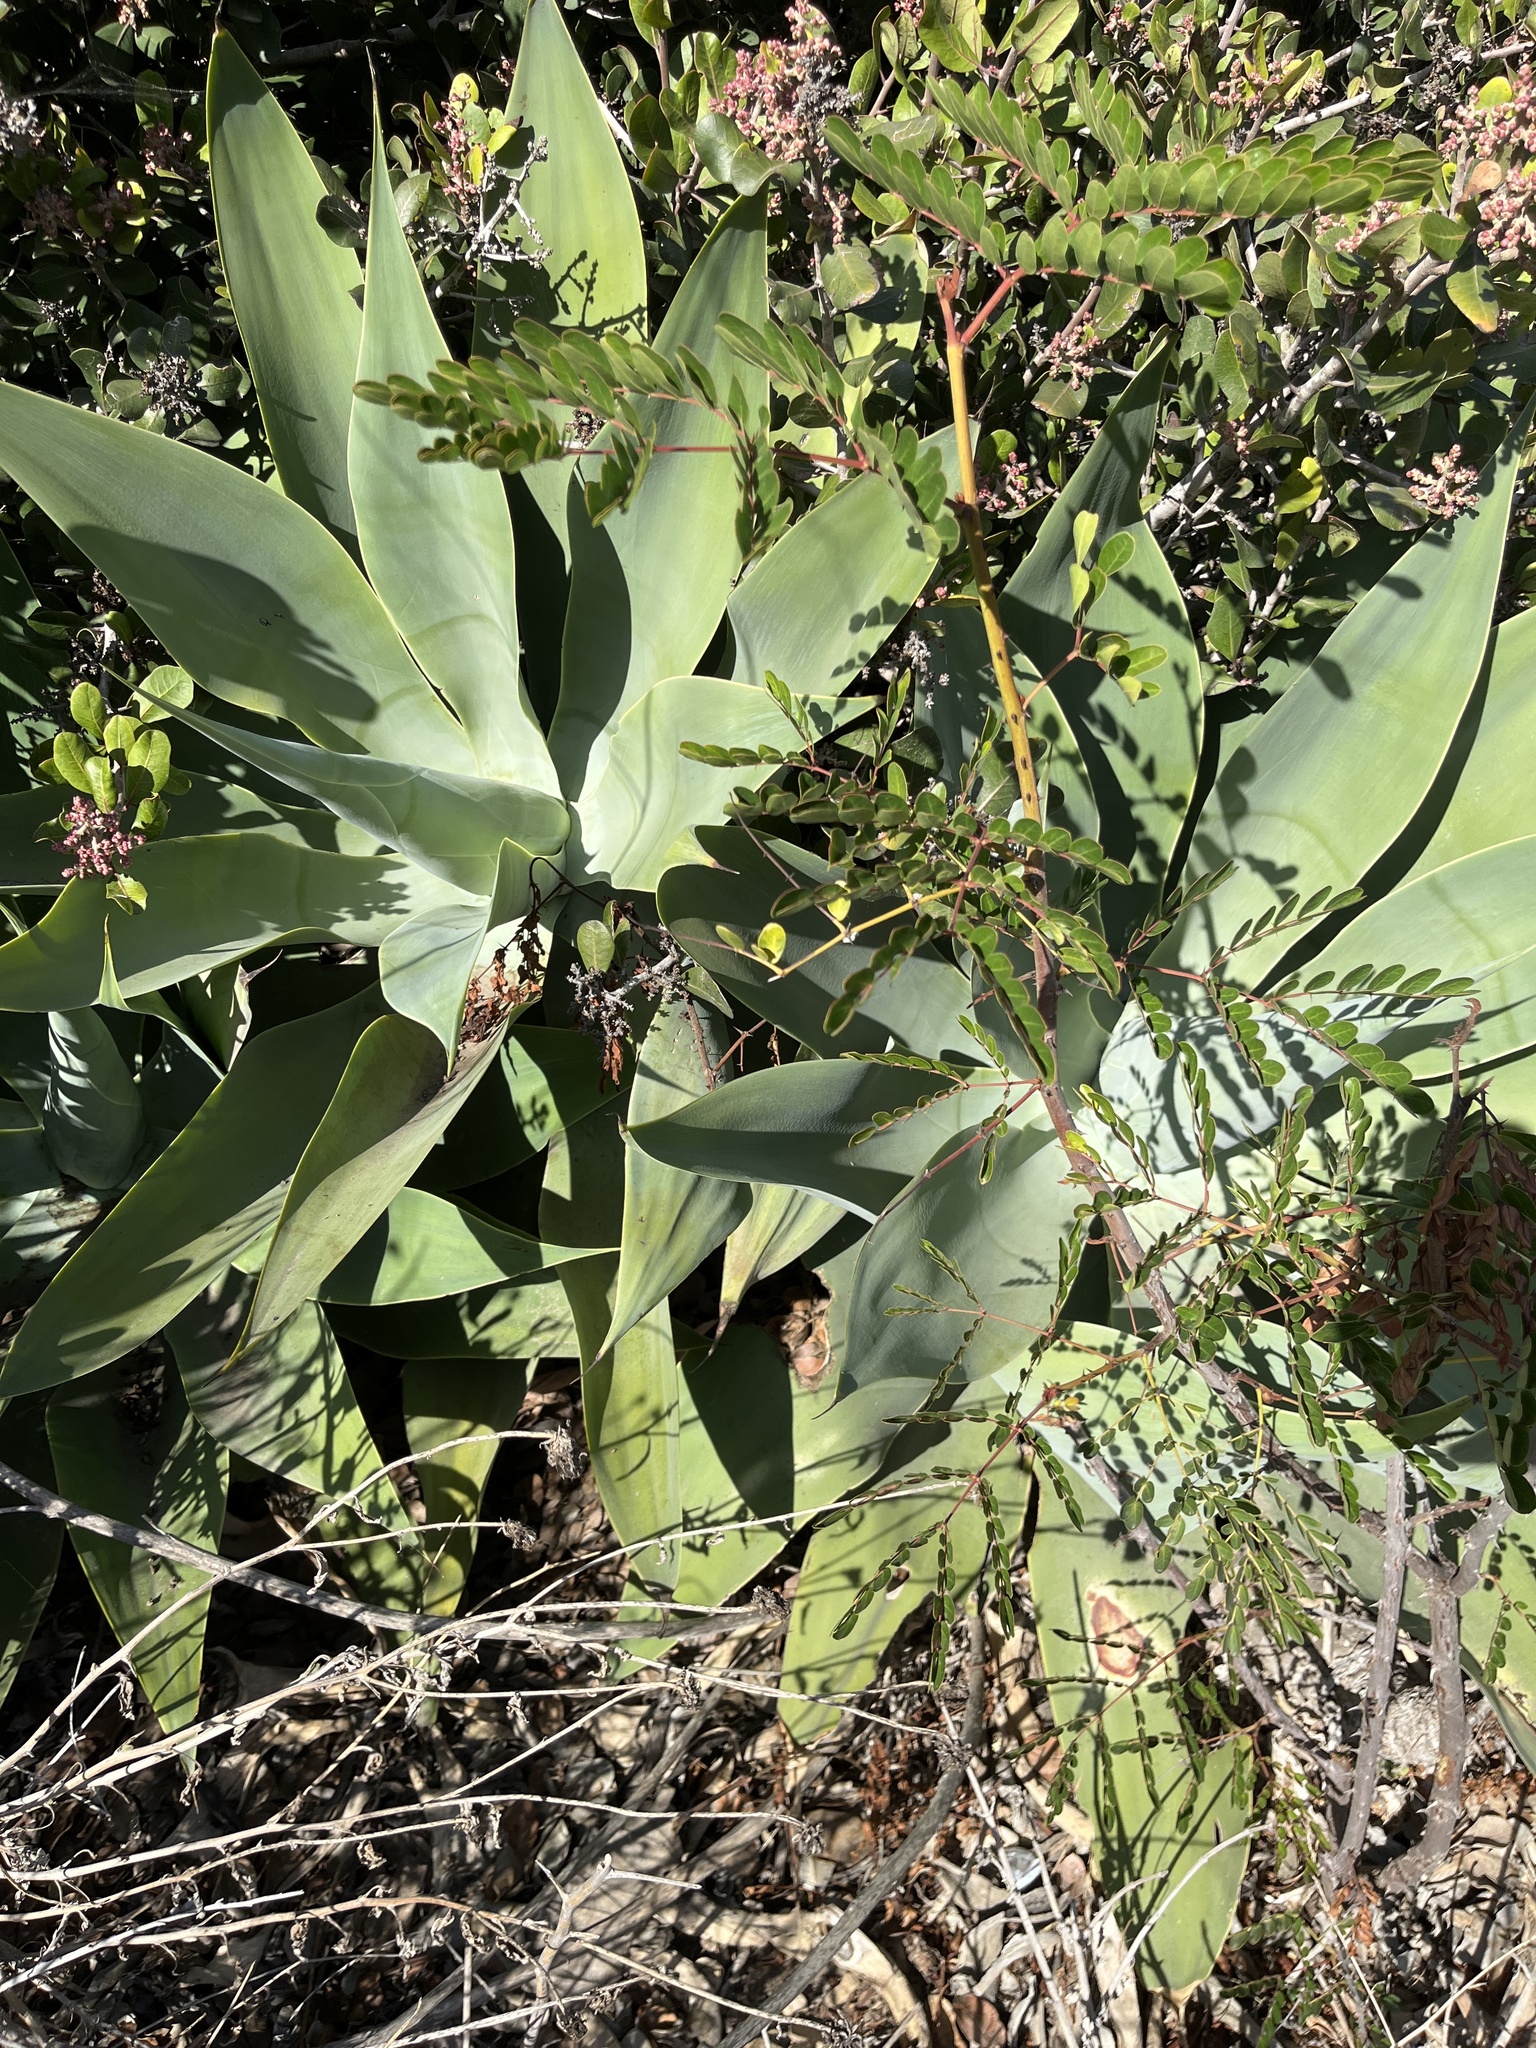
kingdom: Plantae
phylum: Tracheophyta
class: Liliopsida
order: Asparagales
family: Asparagaceae
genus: Agave
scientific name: Agave attenuata
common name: Fox tail agave
